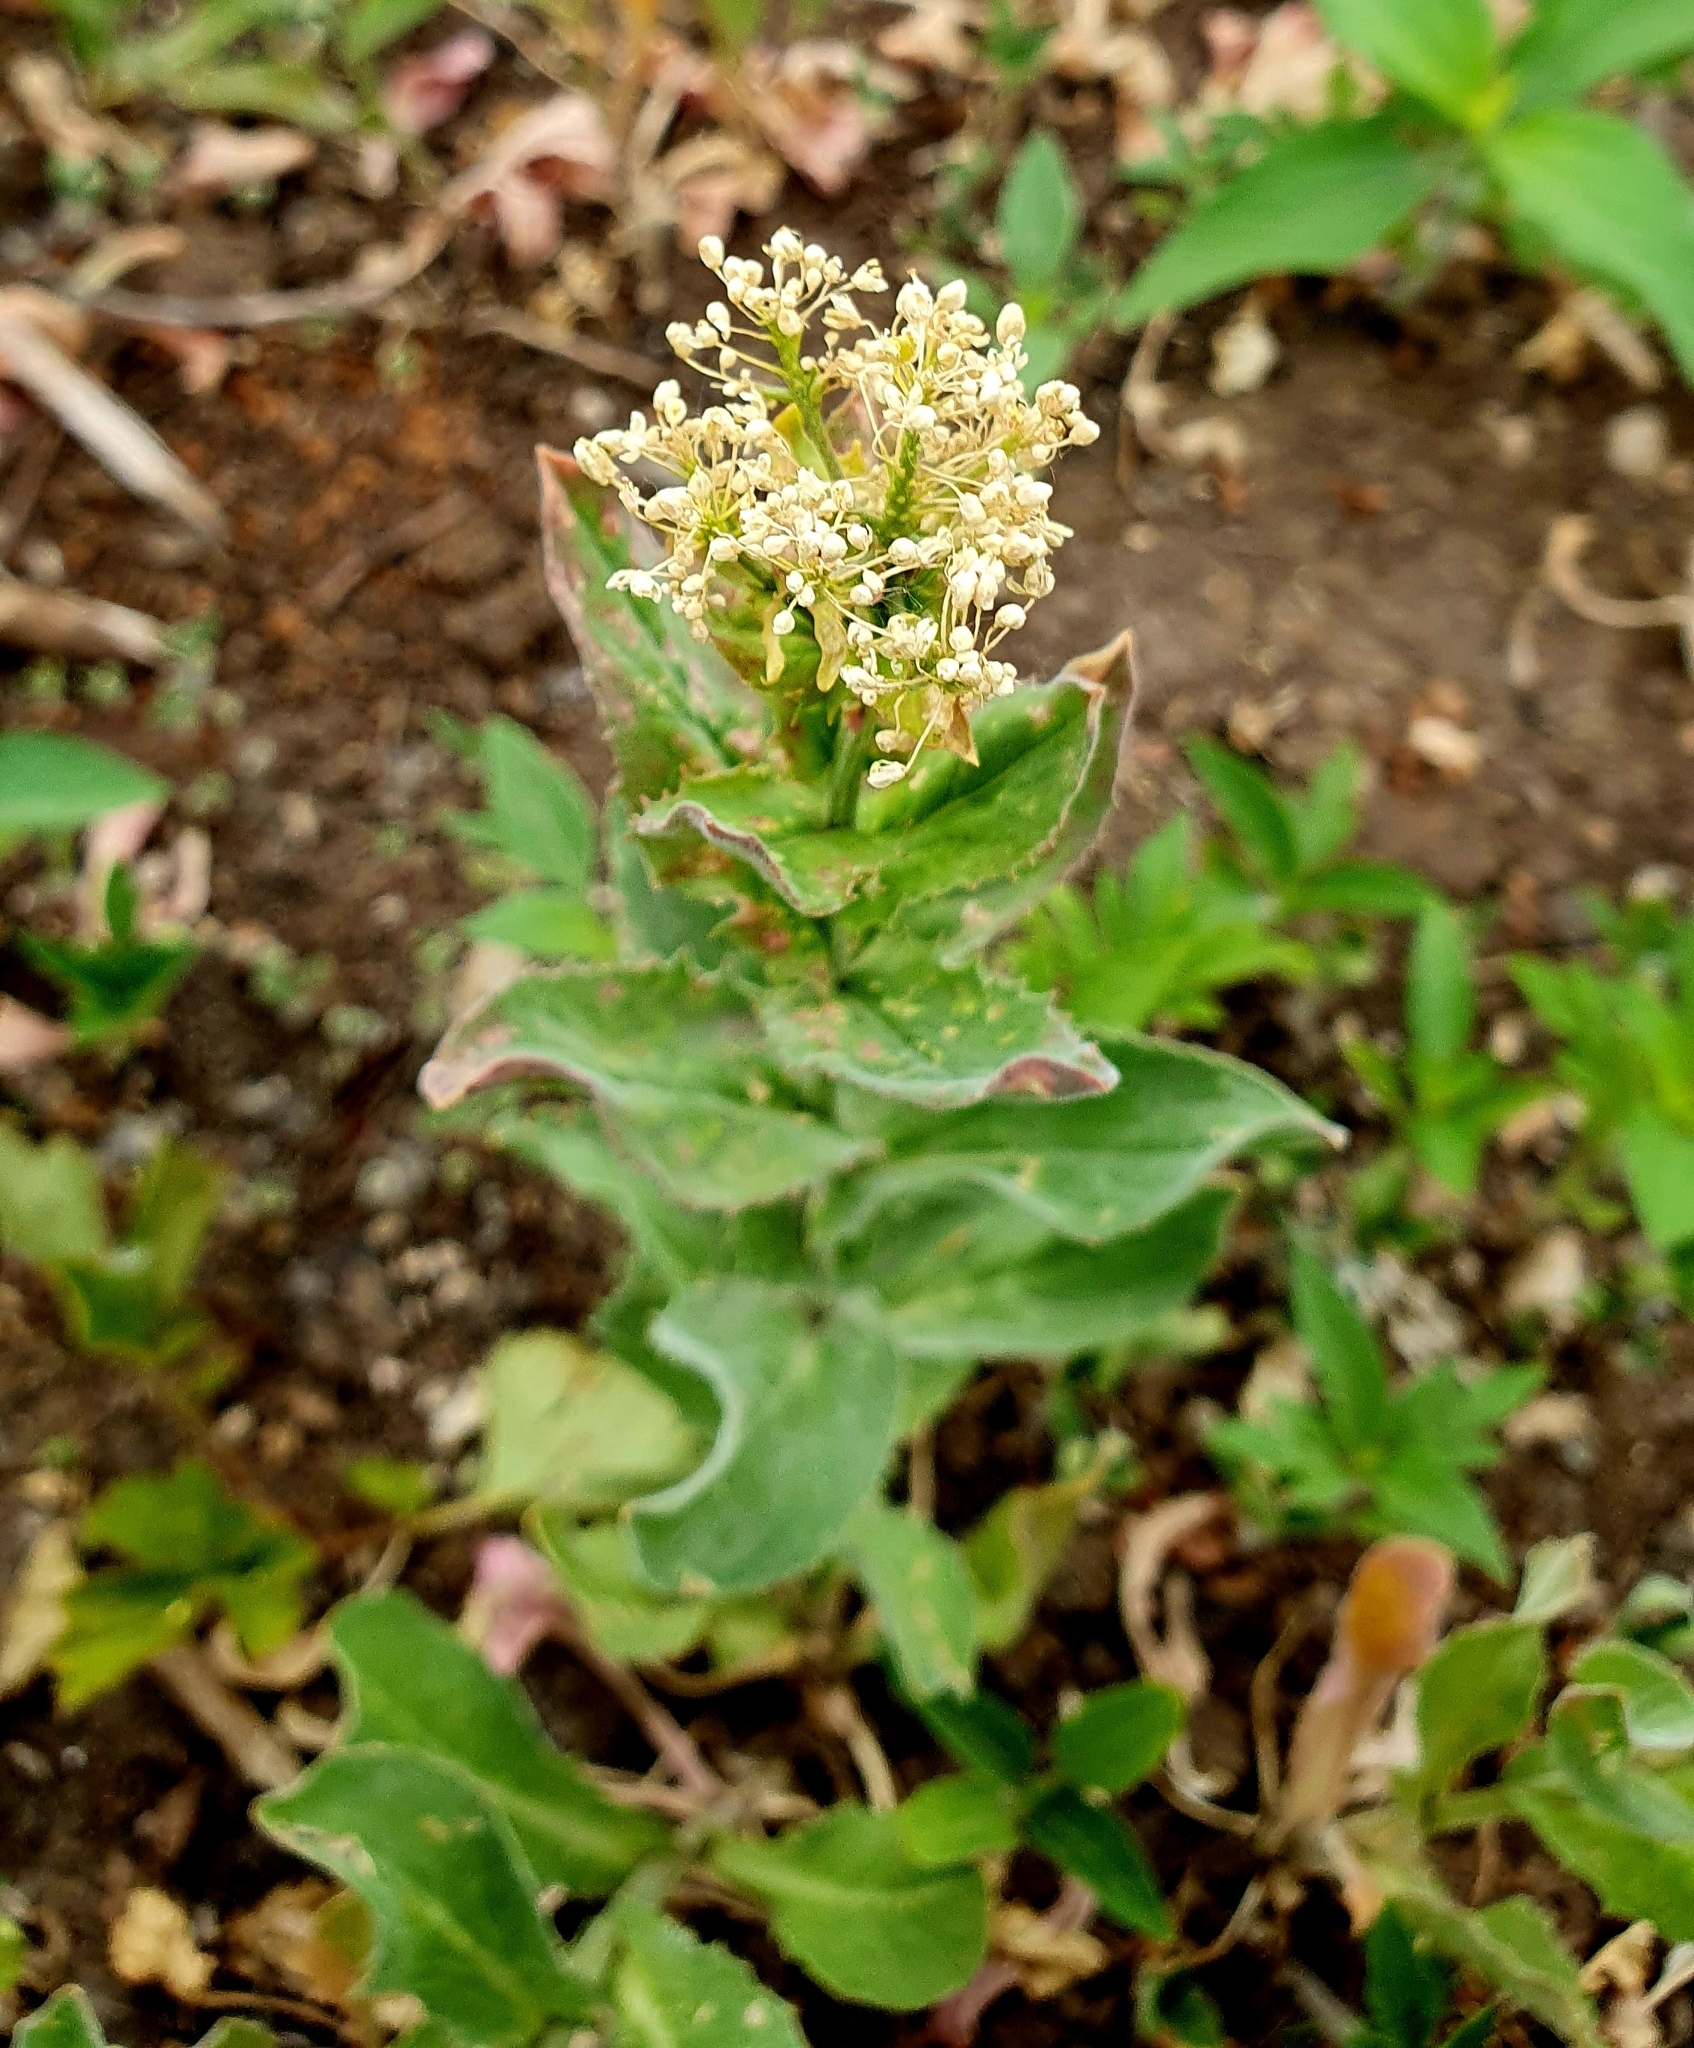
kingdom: Plantae
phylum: Tracheophyta
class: Magnoliopsida
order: Brassicales
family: Brassicaceae
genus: Lepidium
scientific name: Lepidium draba
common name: Hoary cress
